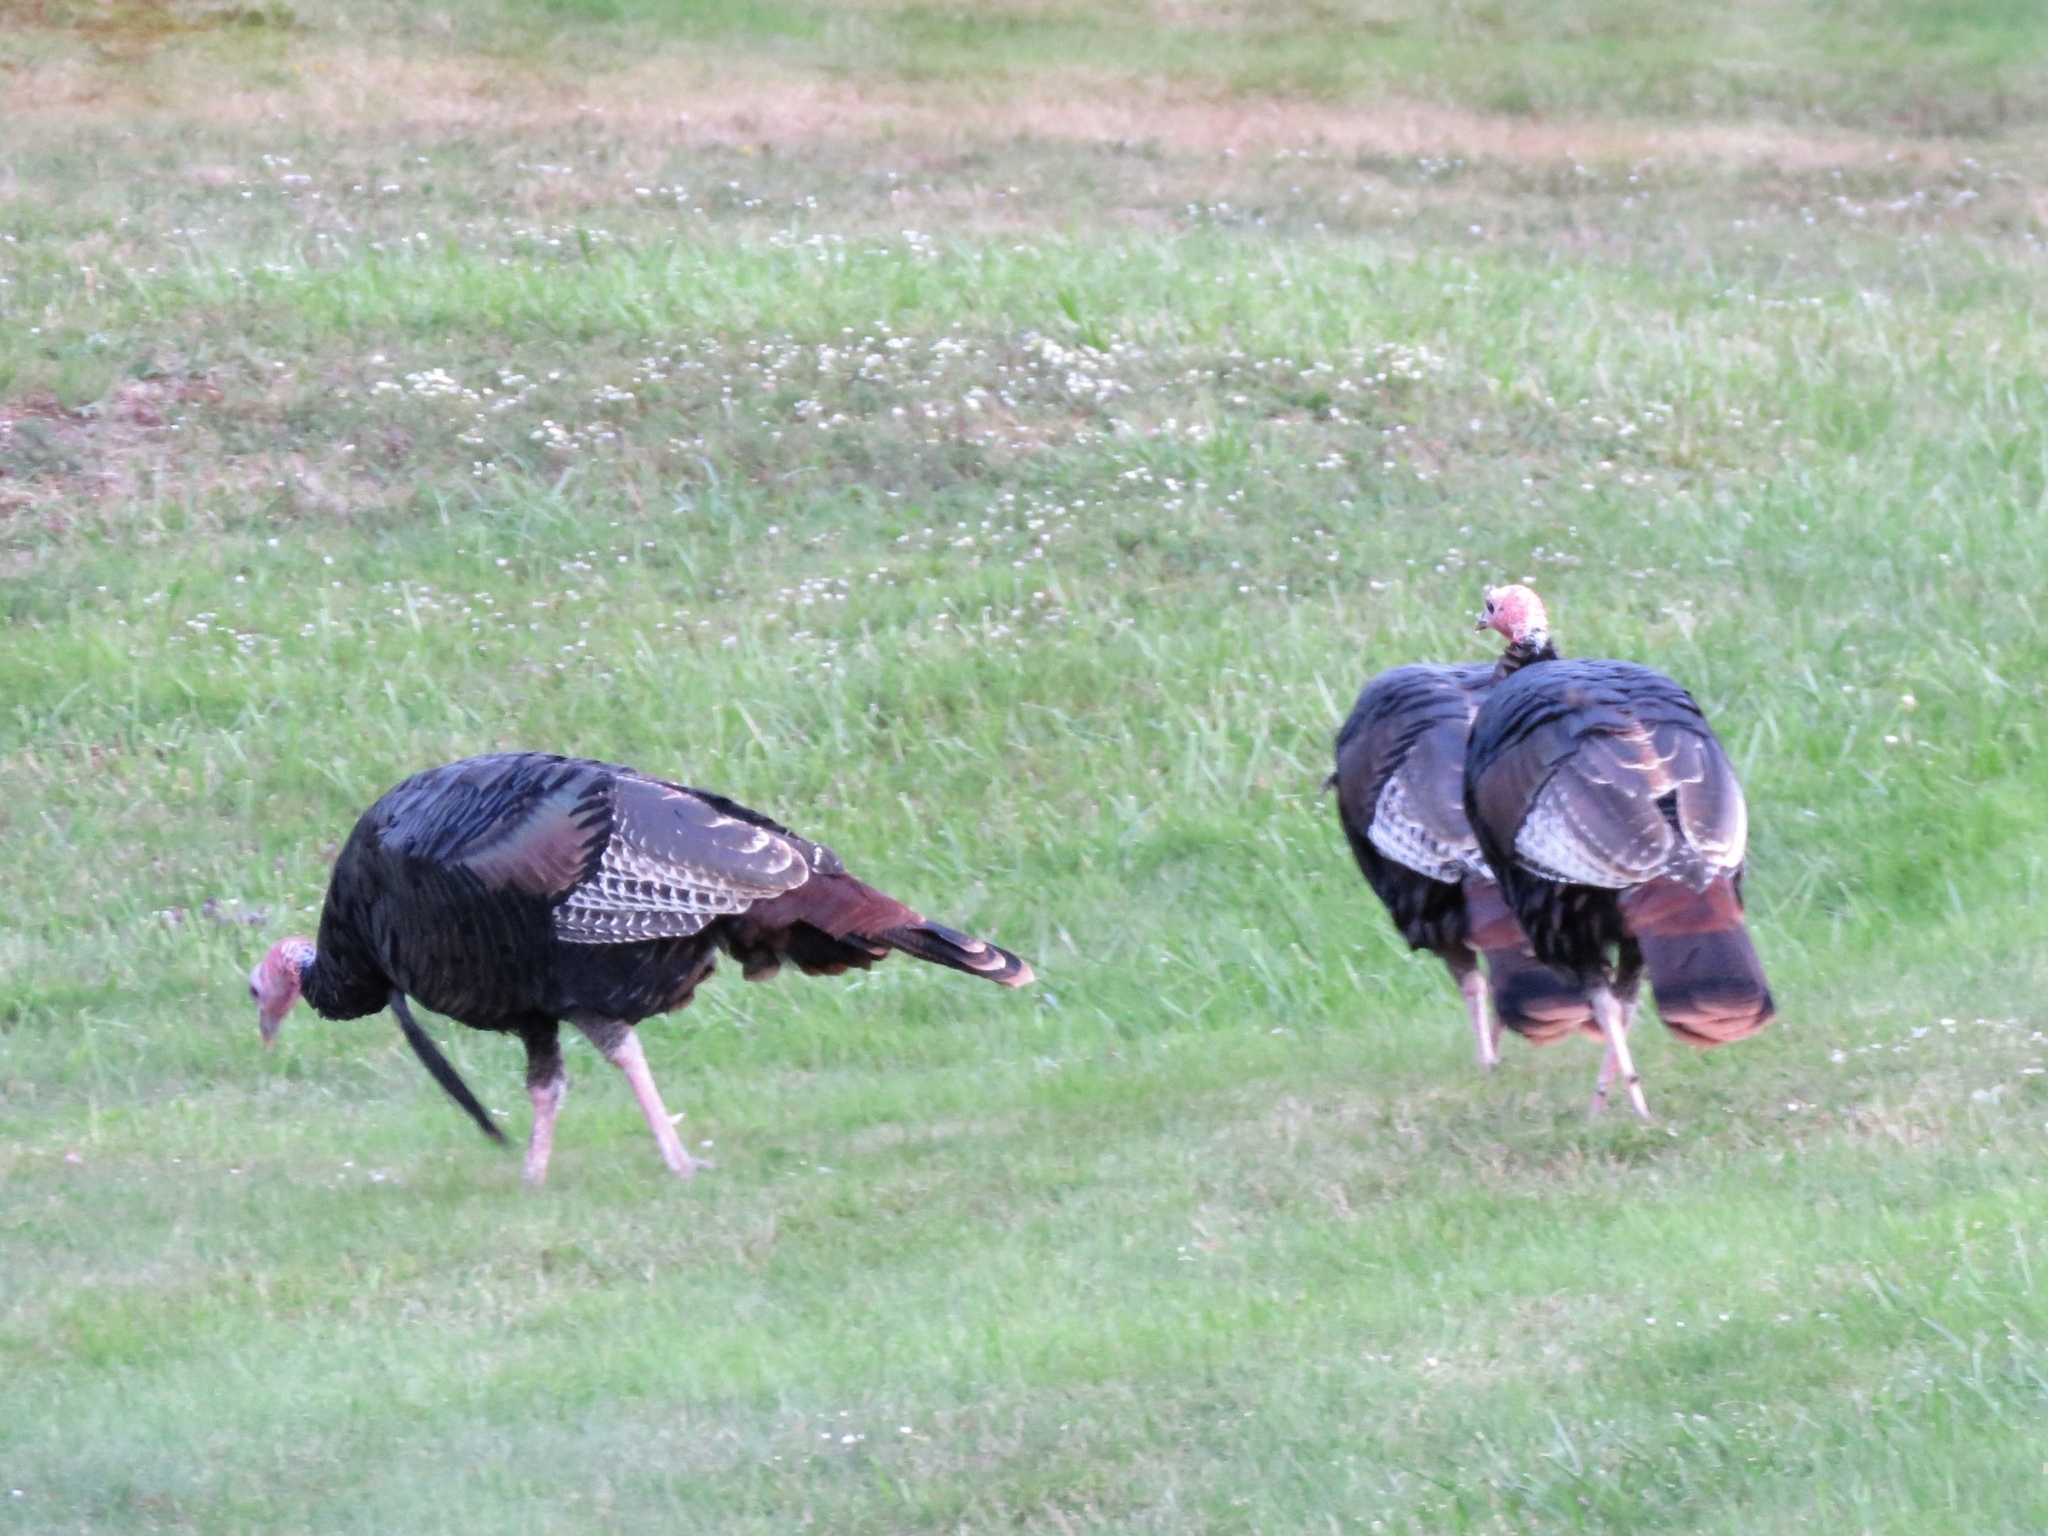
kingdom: Animalia
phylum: Chordata
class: Aves
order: Galliformes
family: Phasianidae
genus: Meleagris
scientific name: Meleagris gallopavo
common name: Wild turkey
